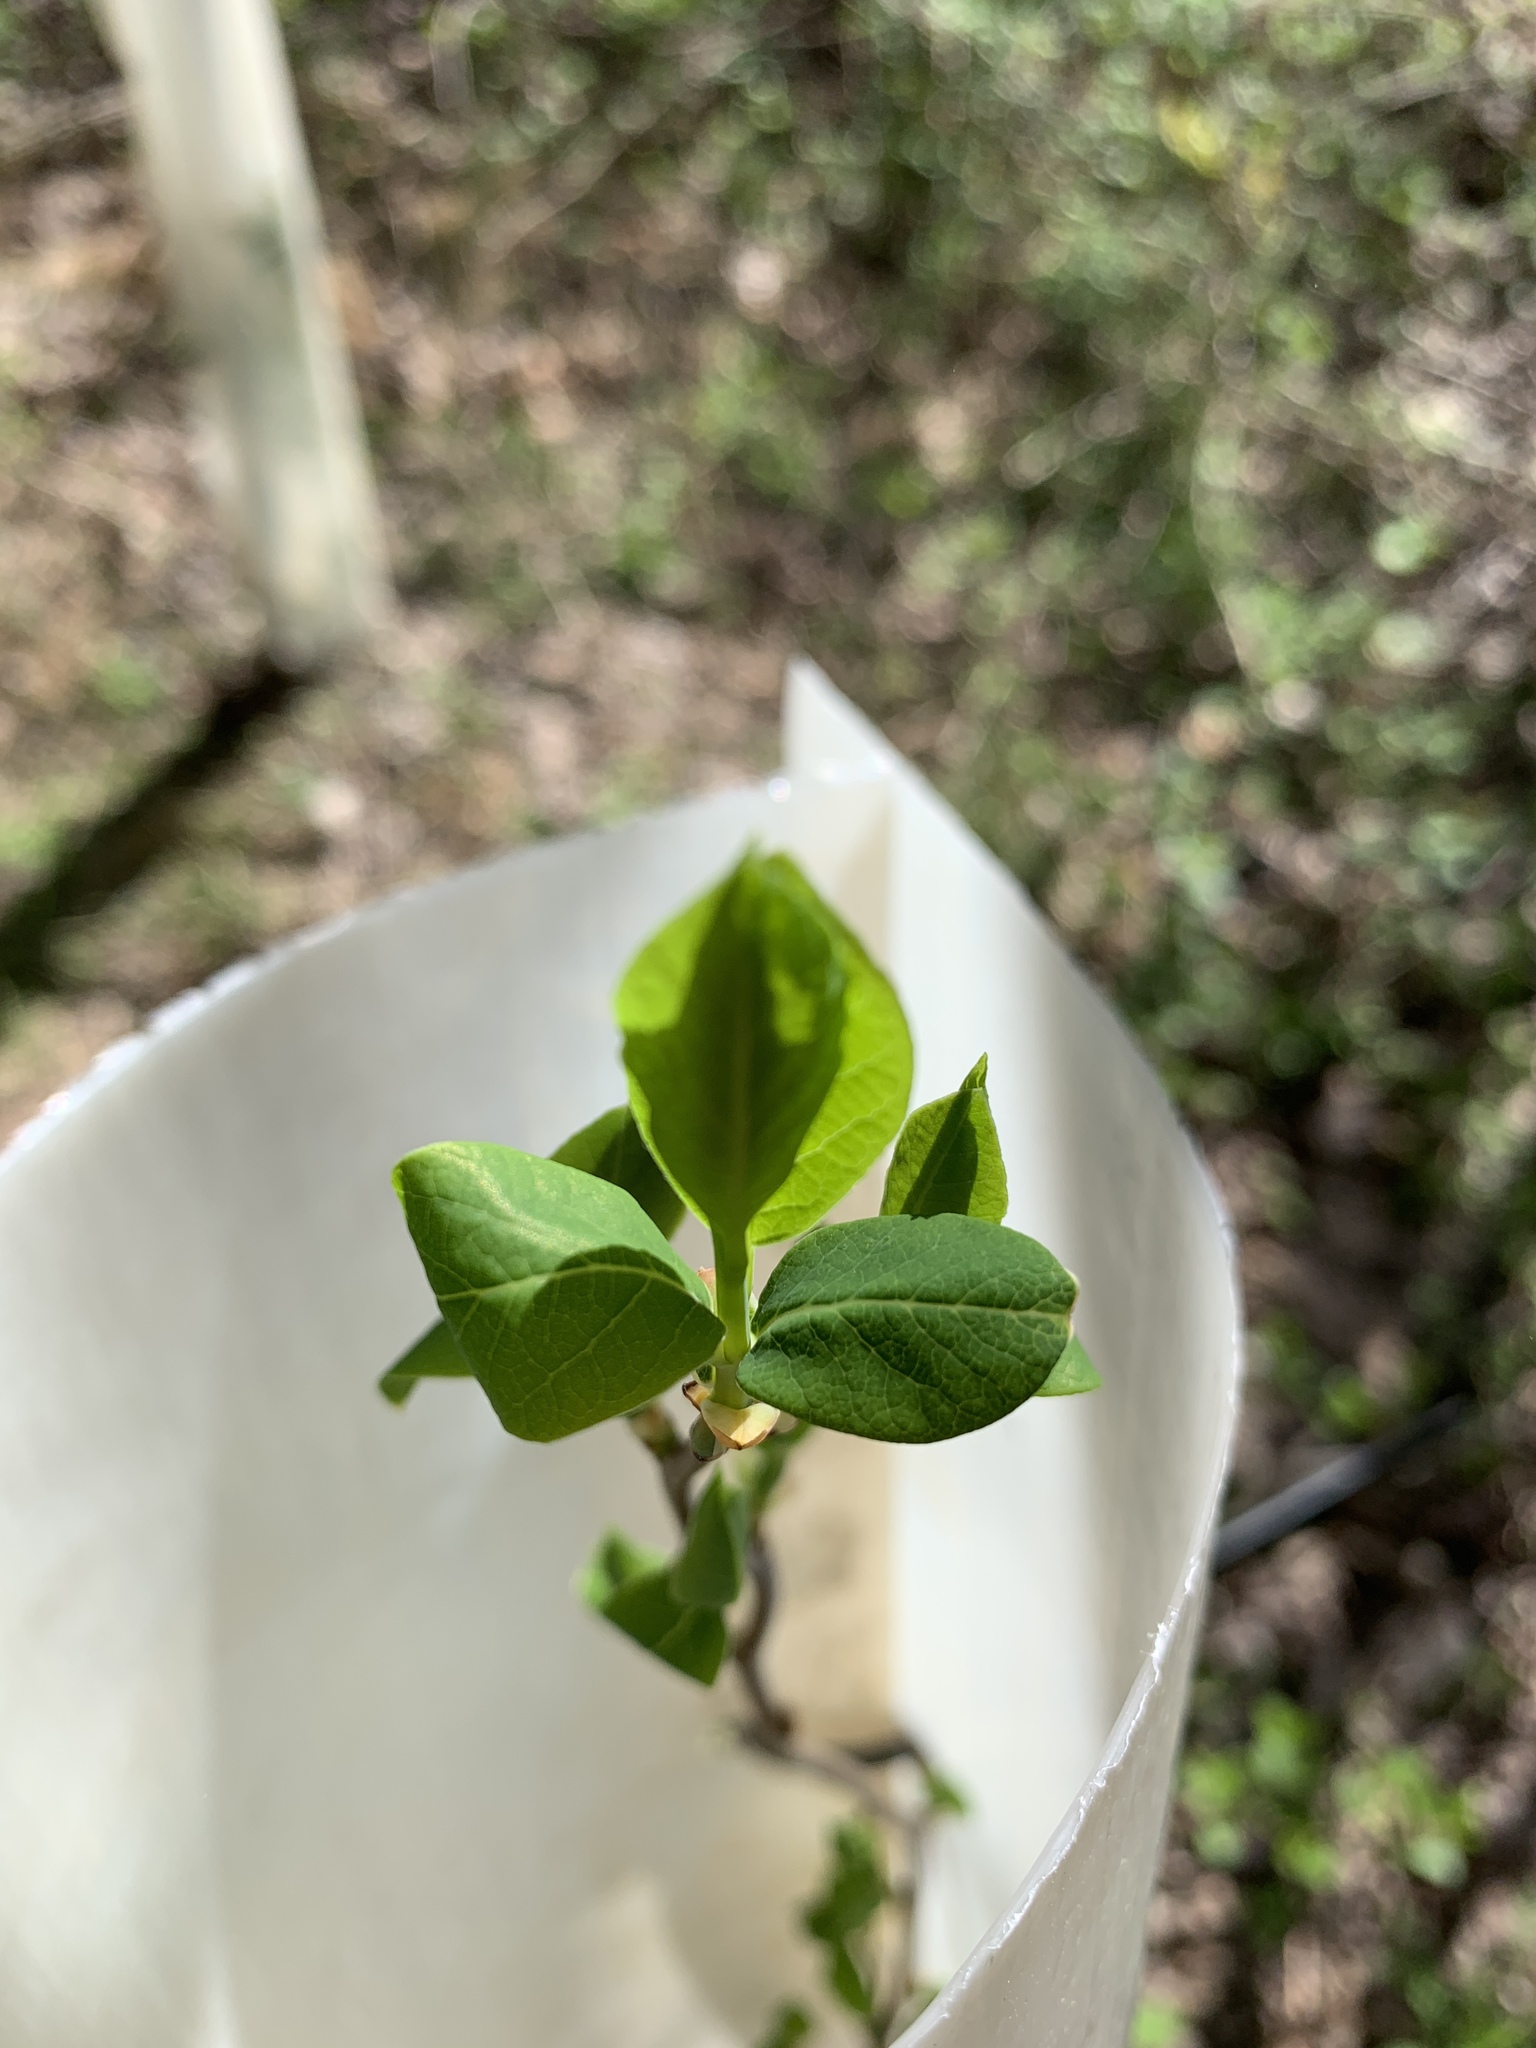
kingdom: Plantae
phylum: Tracheophyta
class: Magnoliopsida
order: Laurales
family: Lauraceae
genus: Lindera
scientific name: Lindera benzoin
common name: Spicebush
